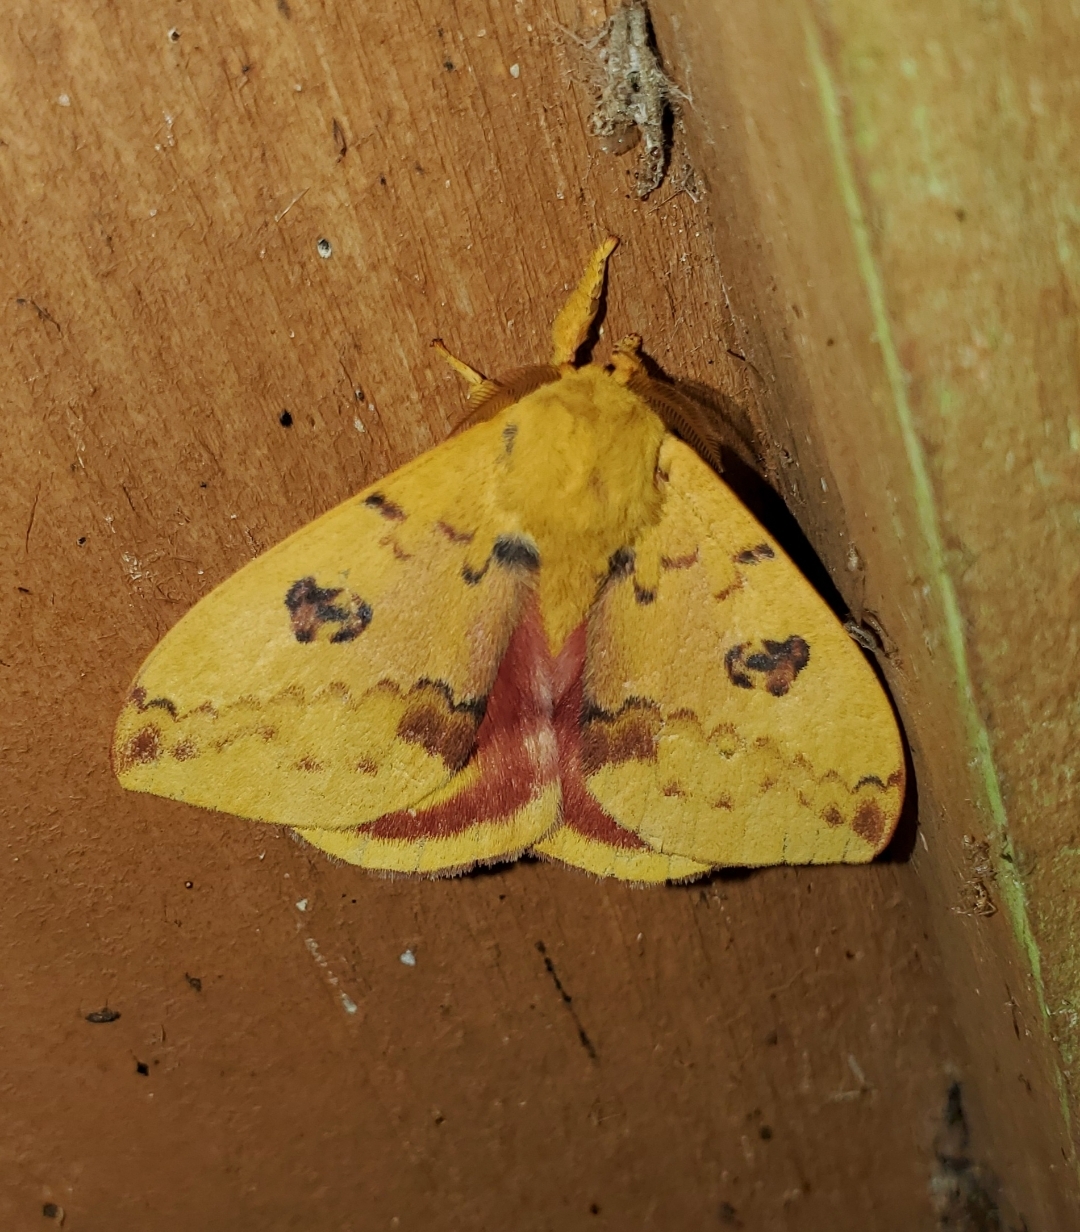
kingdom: Animalia
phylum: Arthropoda
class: Insecta
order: Lepidoptera
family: Saturniidae
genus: Automeris
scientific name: Automeris io
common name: Io moth
